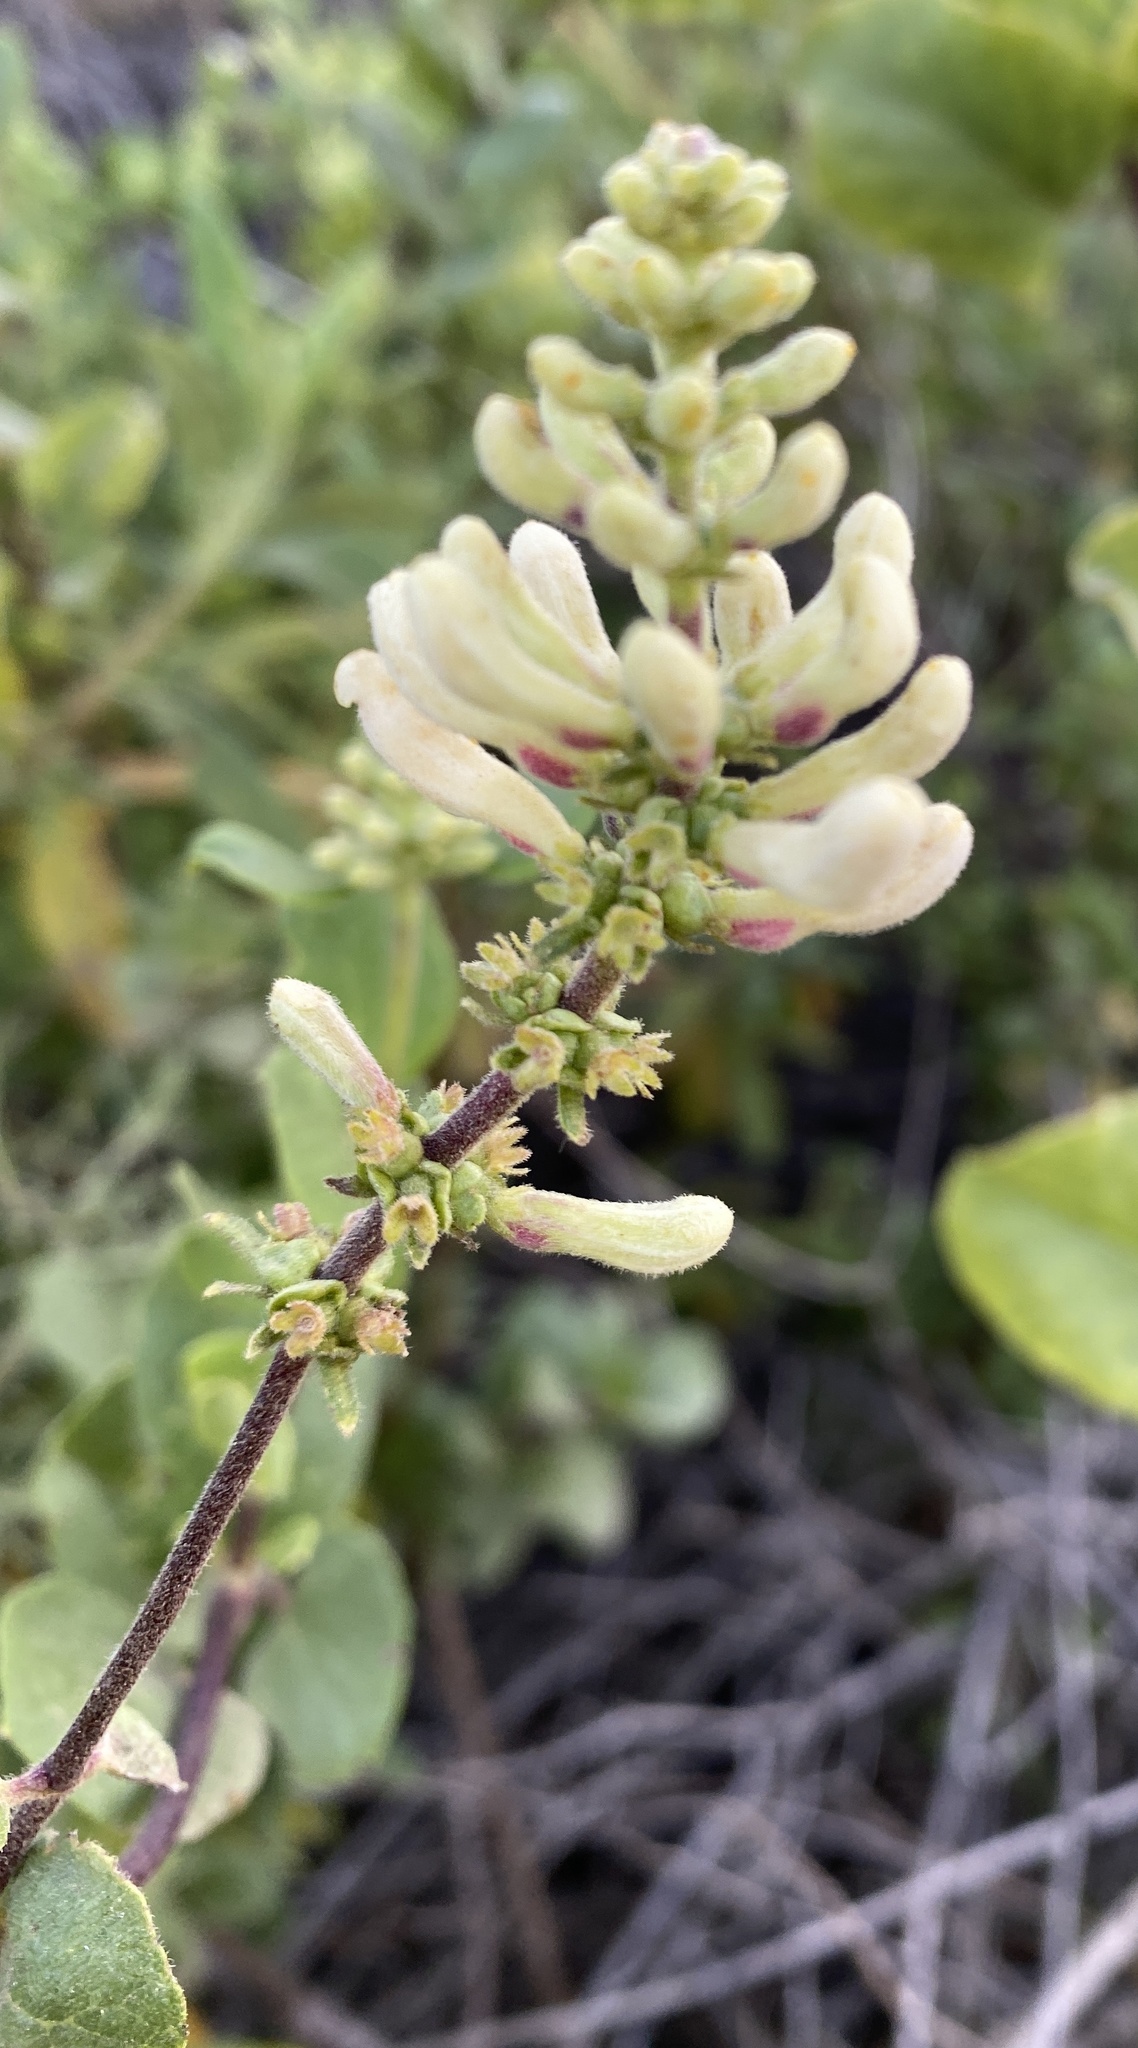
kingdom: Plantae
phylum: Tracheophyta
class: Magnoliopsida
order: Dipsacales
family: Caprifoliaceae
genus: Lonicera
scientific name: Lonicera subspicata
